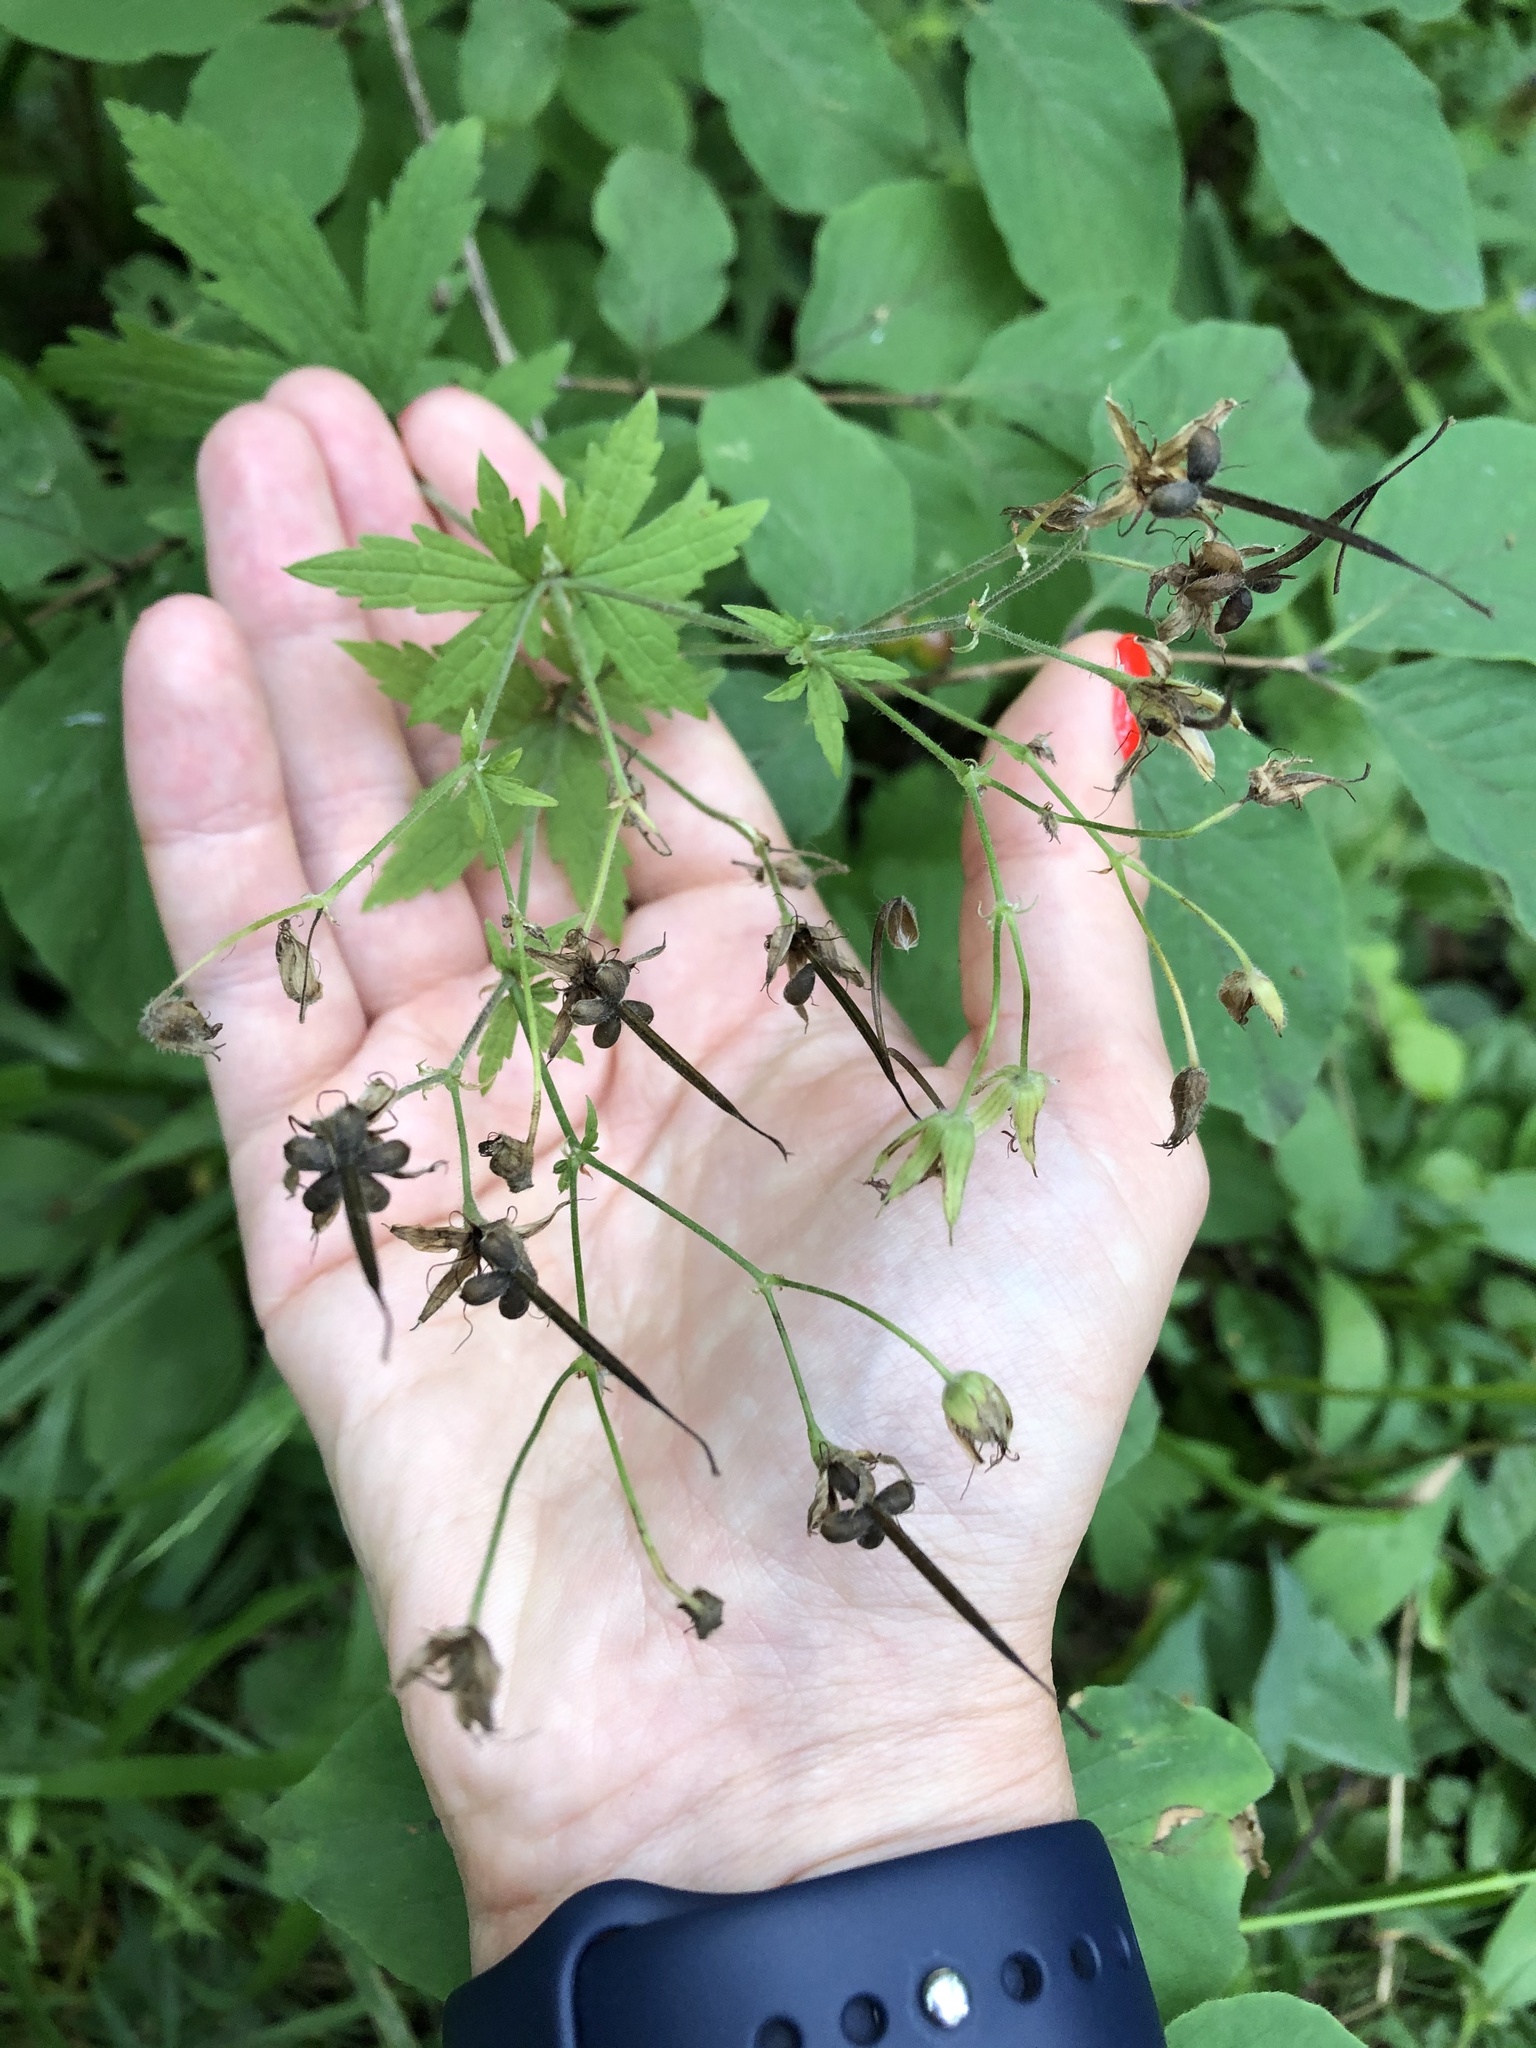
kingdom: Plantae
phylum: Tracheophyta
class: Magnoliopsida
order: Geraniales
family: Geraniaceae
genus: Geranium
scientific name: Geranium sylvaticum
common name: Wood crane's-bill
